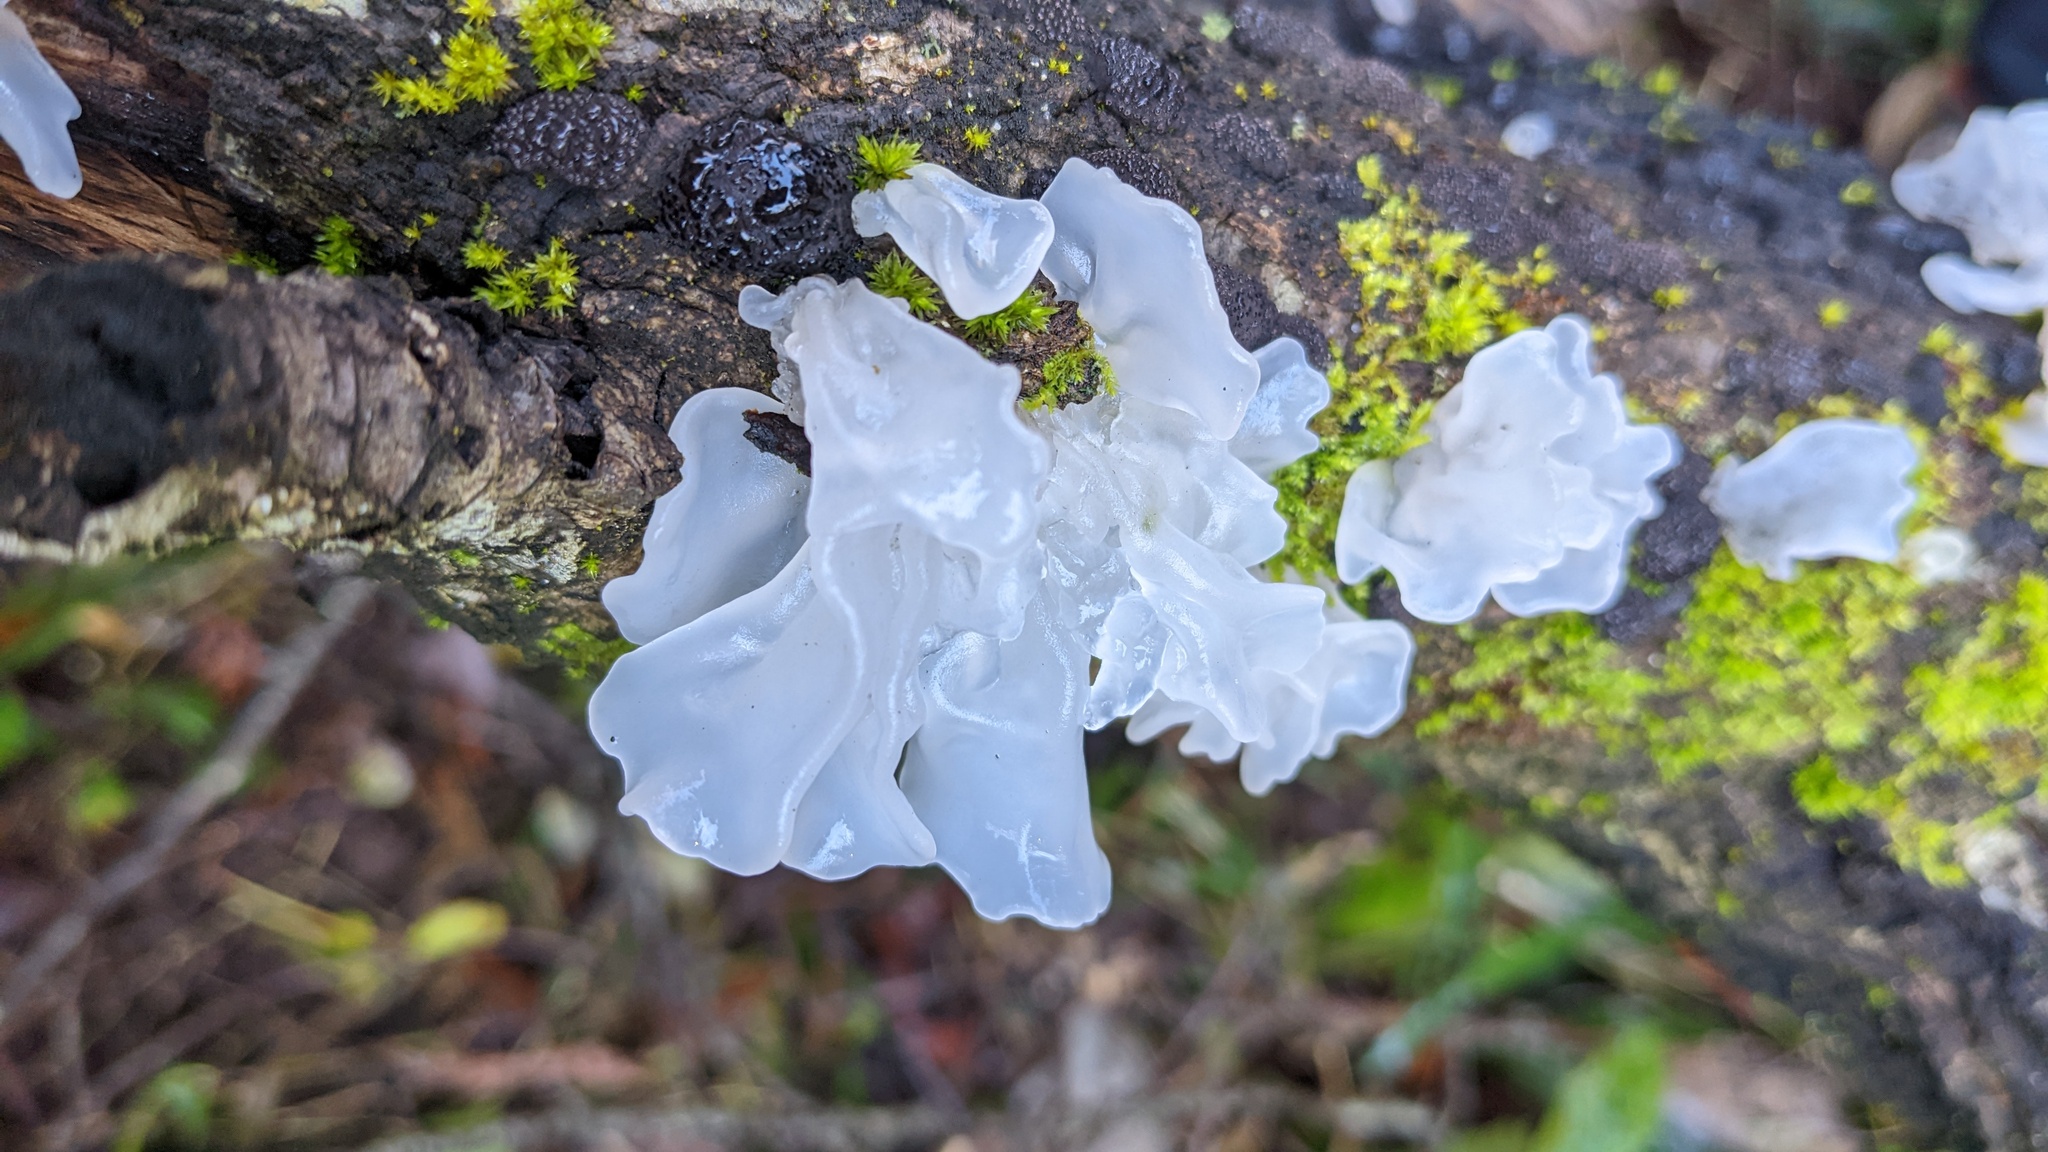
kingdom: Fungi
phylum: Basidiomycota
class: Tremellomycetes
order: Tremellales
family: Tremellaceae
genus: Tremella
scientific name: Tremella fuciformis
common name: Snow fungus
